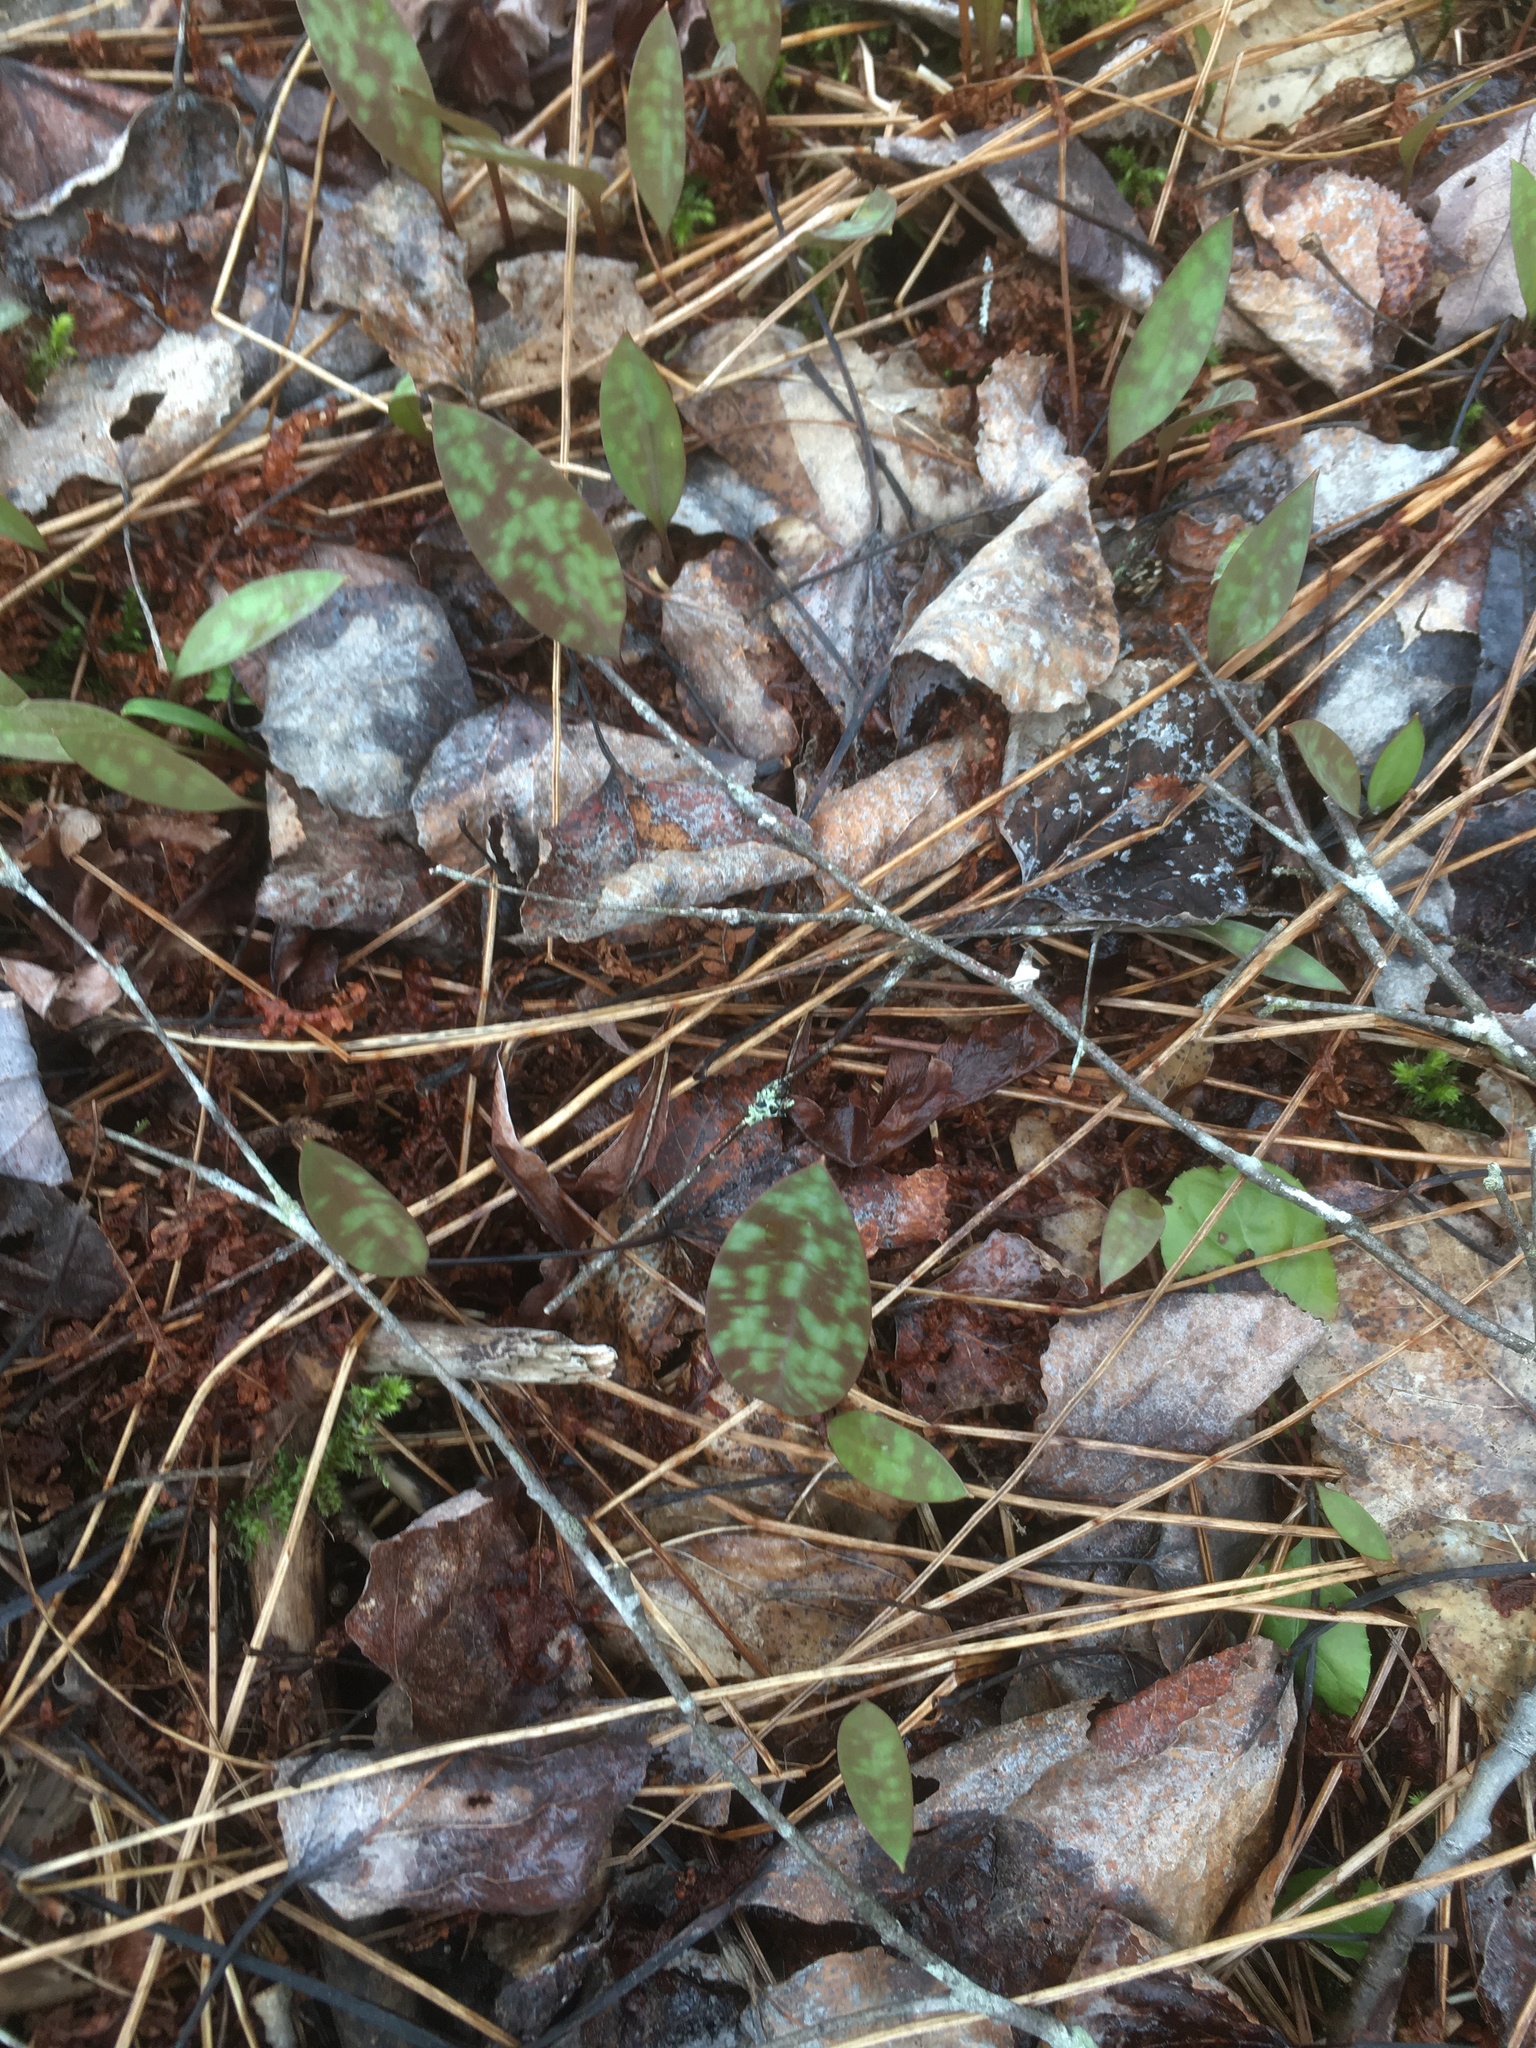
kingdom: Plantae
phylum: Tracheophyta
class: Liliopsida
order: Liliales
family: Liliaceae
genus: Erythronium
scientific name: Erythronium americanum
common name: Yellow adder's-tongue
